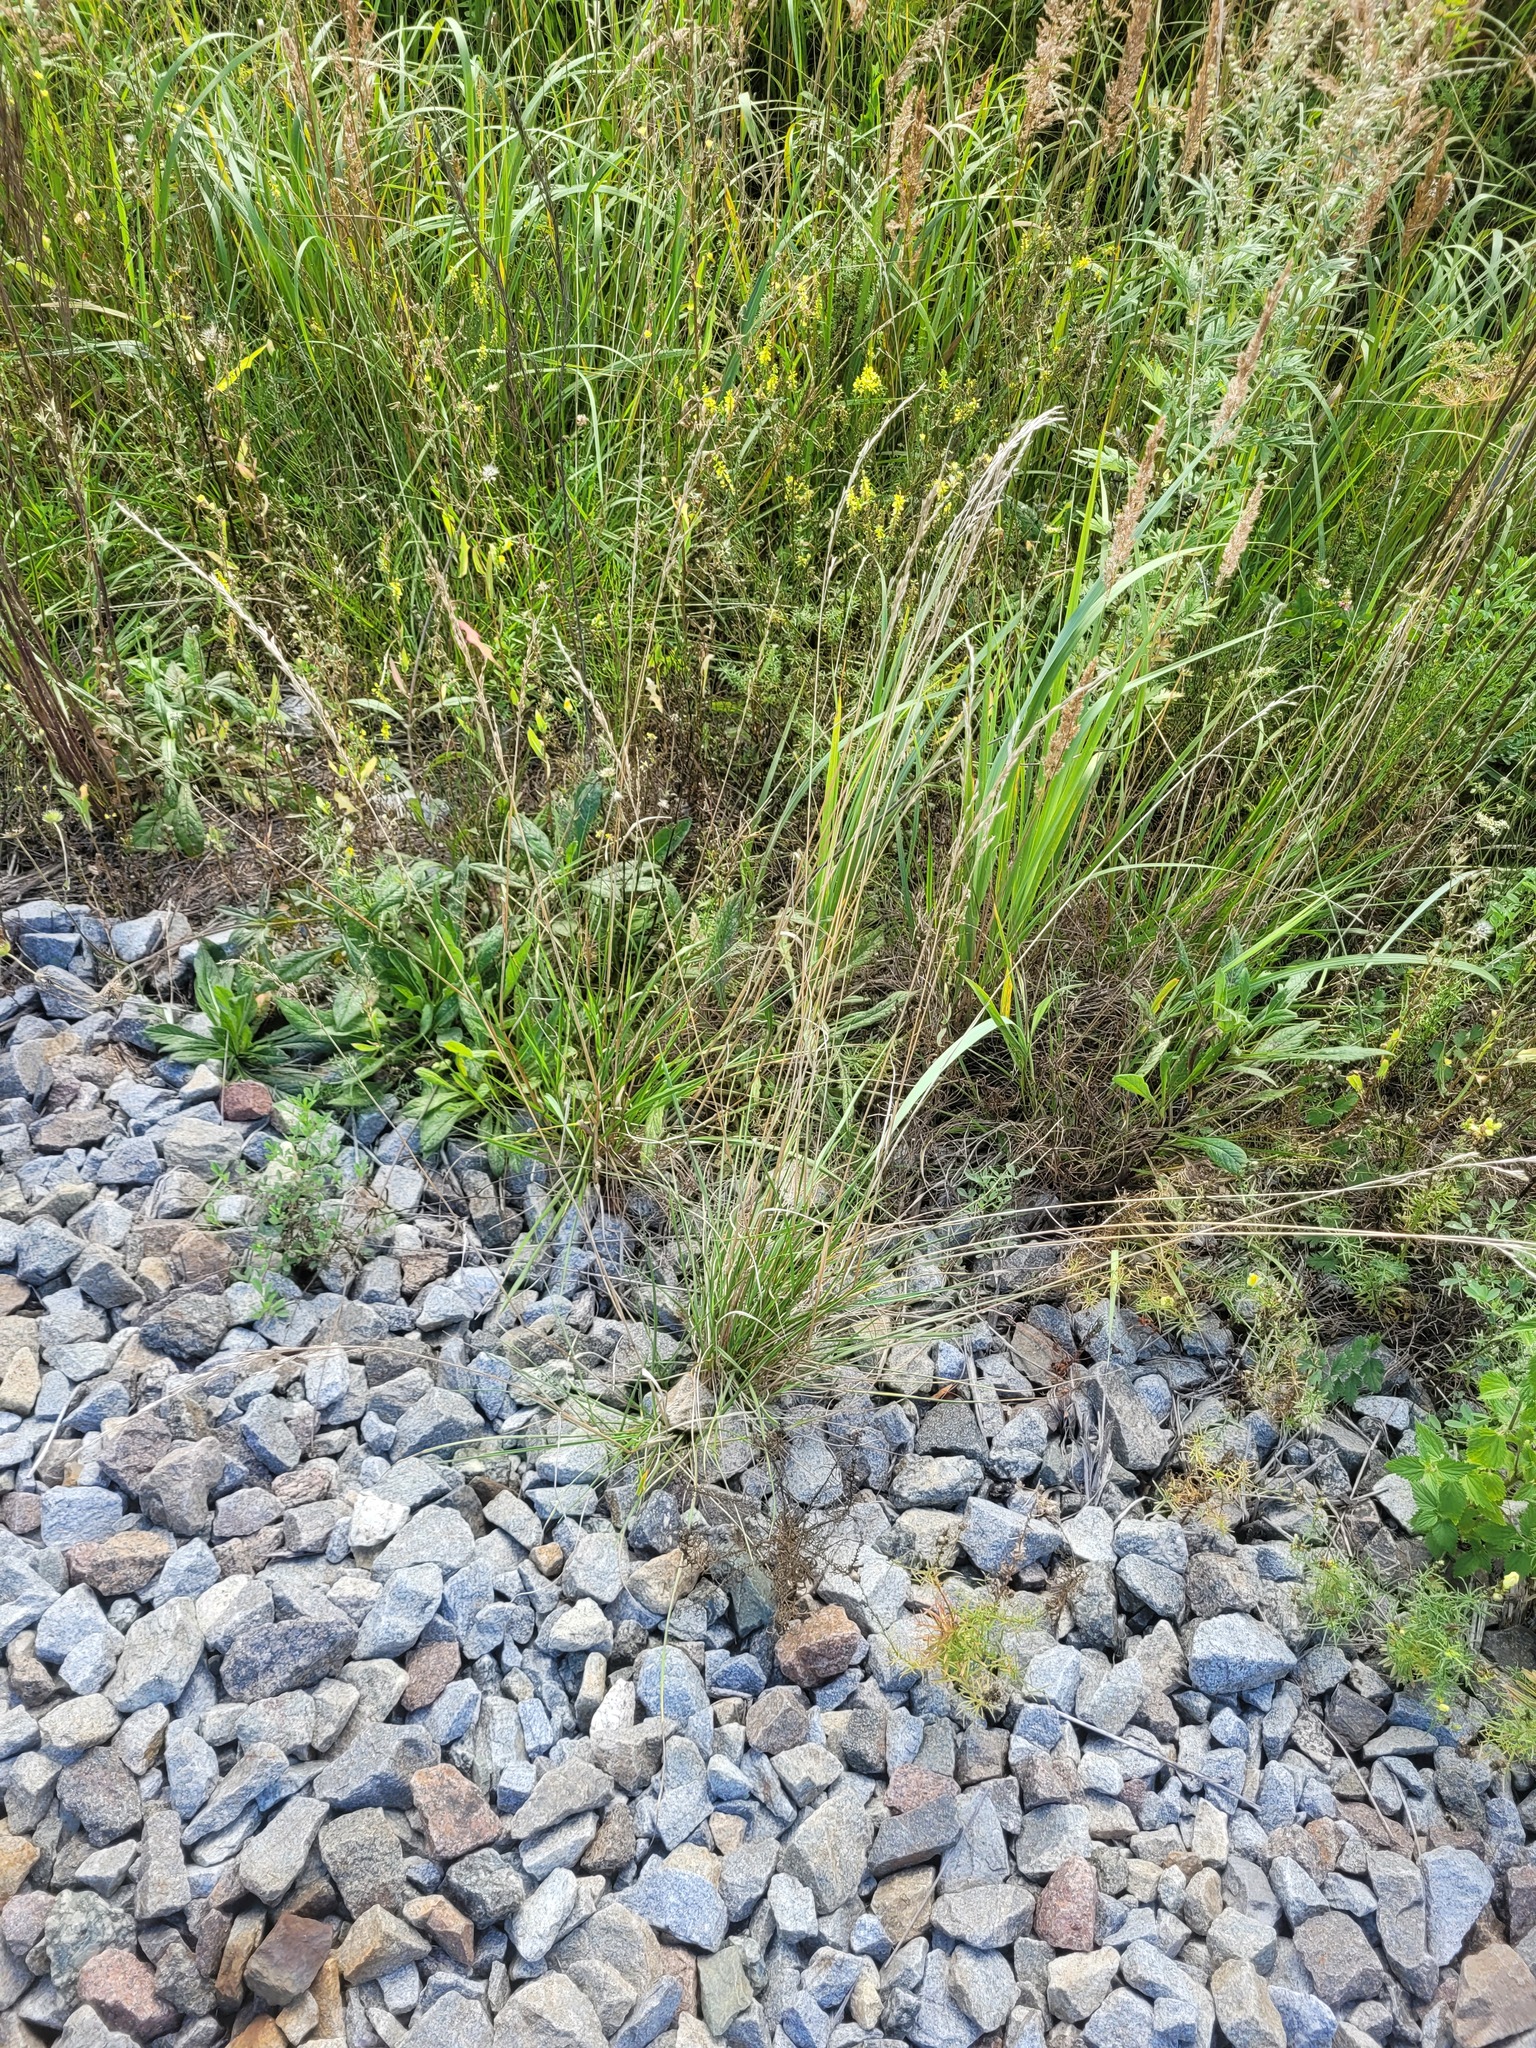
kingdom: Plantae
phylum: Tracheophyta
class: Liliopsida
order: Poales
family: Poaceae
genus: Lolium
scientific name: Lolium pratense
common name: Dover grass
